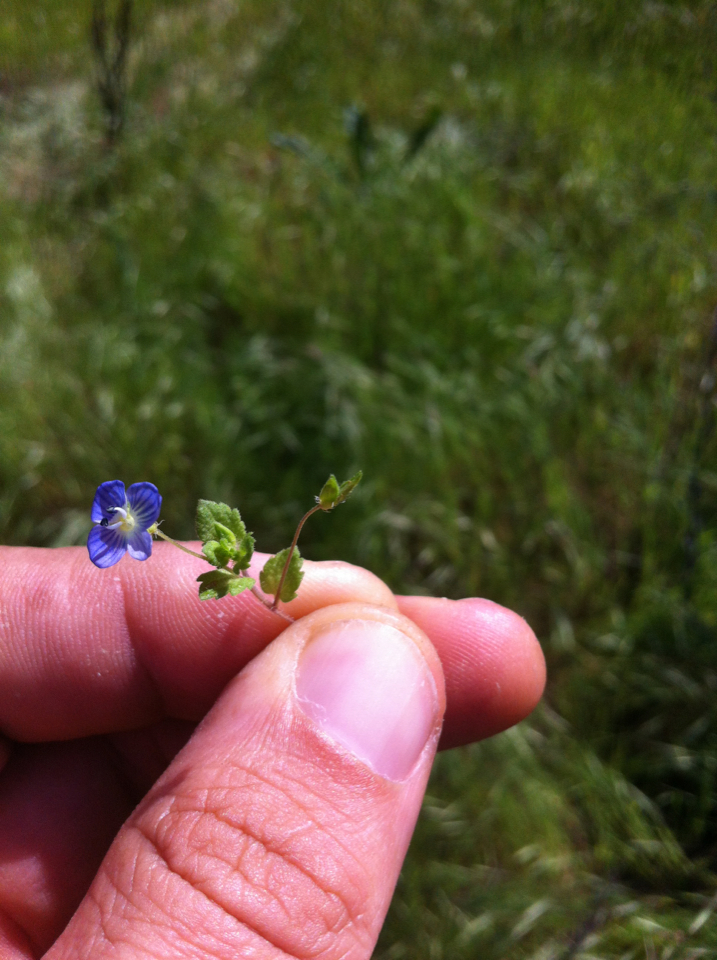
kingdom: Plantae
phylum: Tracheophyta
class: Magnoliopsida
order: Lamiales
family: Plantaginaceae
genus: Veronica
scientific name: Veronica persica
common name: Common field-speedwell
